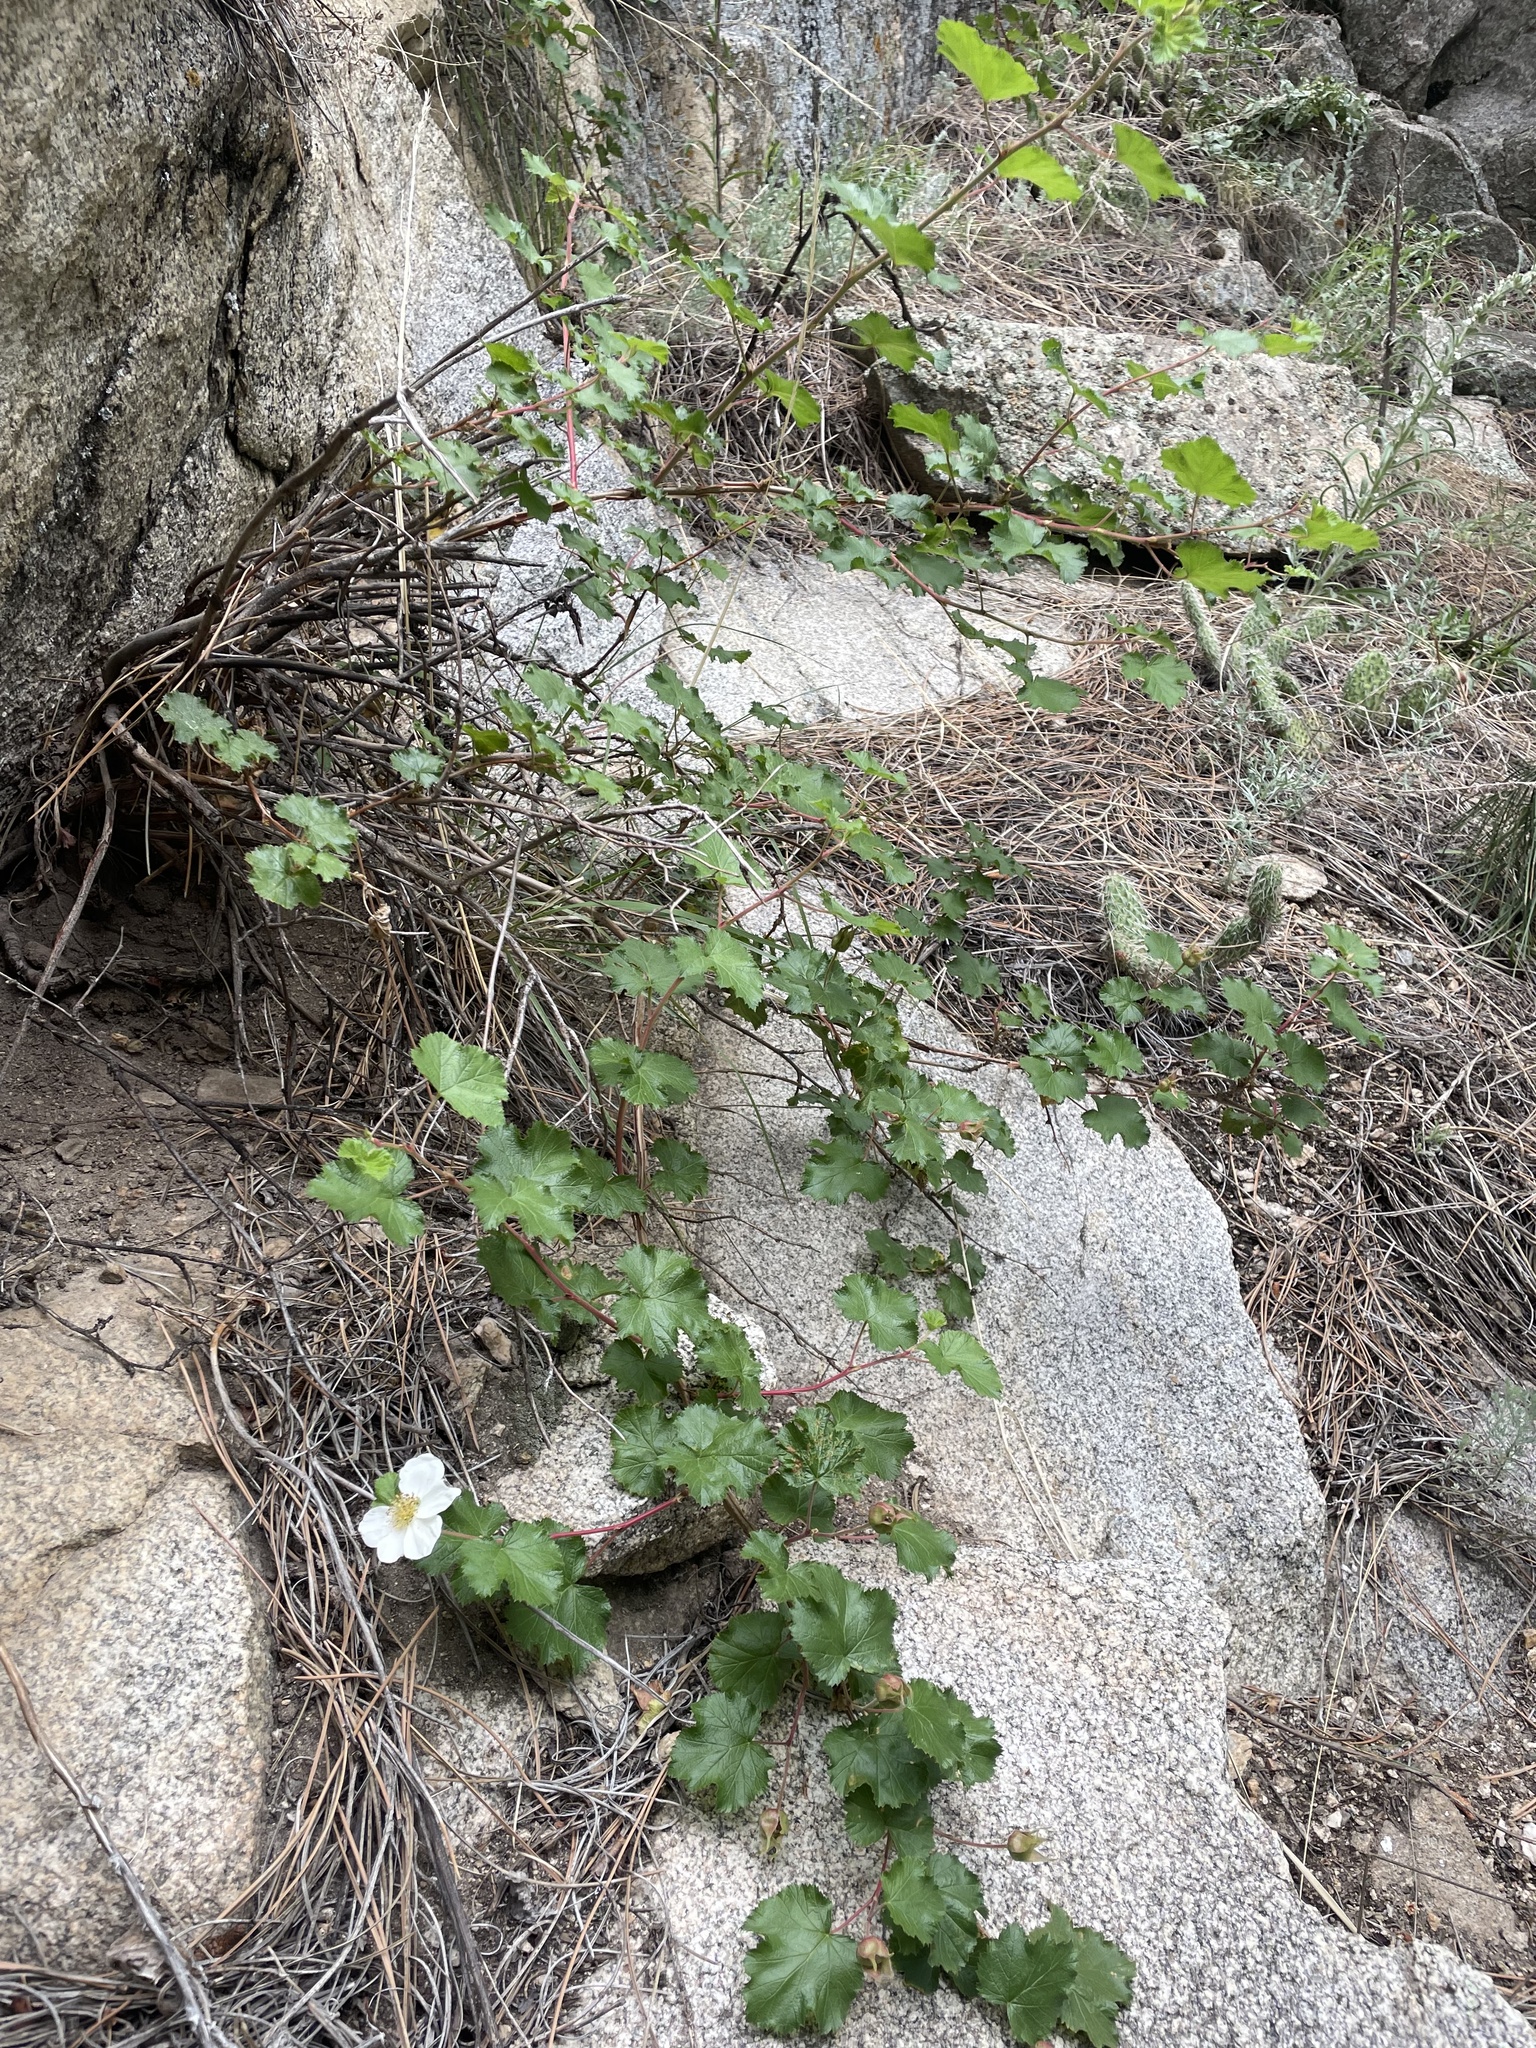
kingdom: Plantae
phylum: Tracheophyta
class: Magnoliopsida
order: Rosales
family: Rosaceae
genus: Rubus
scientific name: Rubus deliciosus
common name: Rocky mountain raspberry
